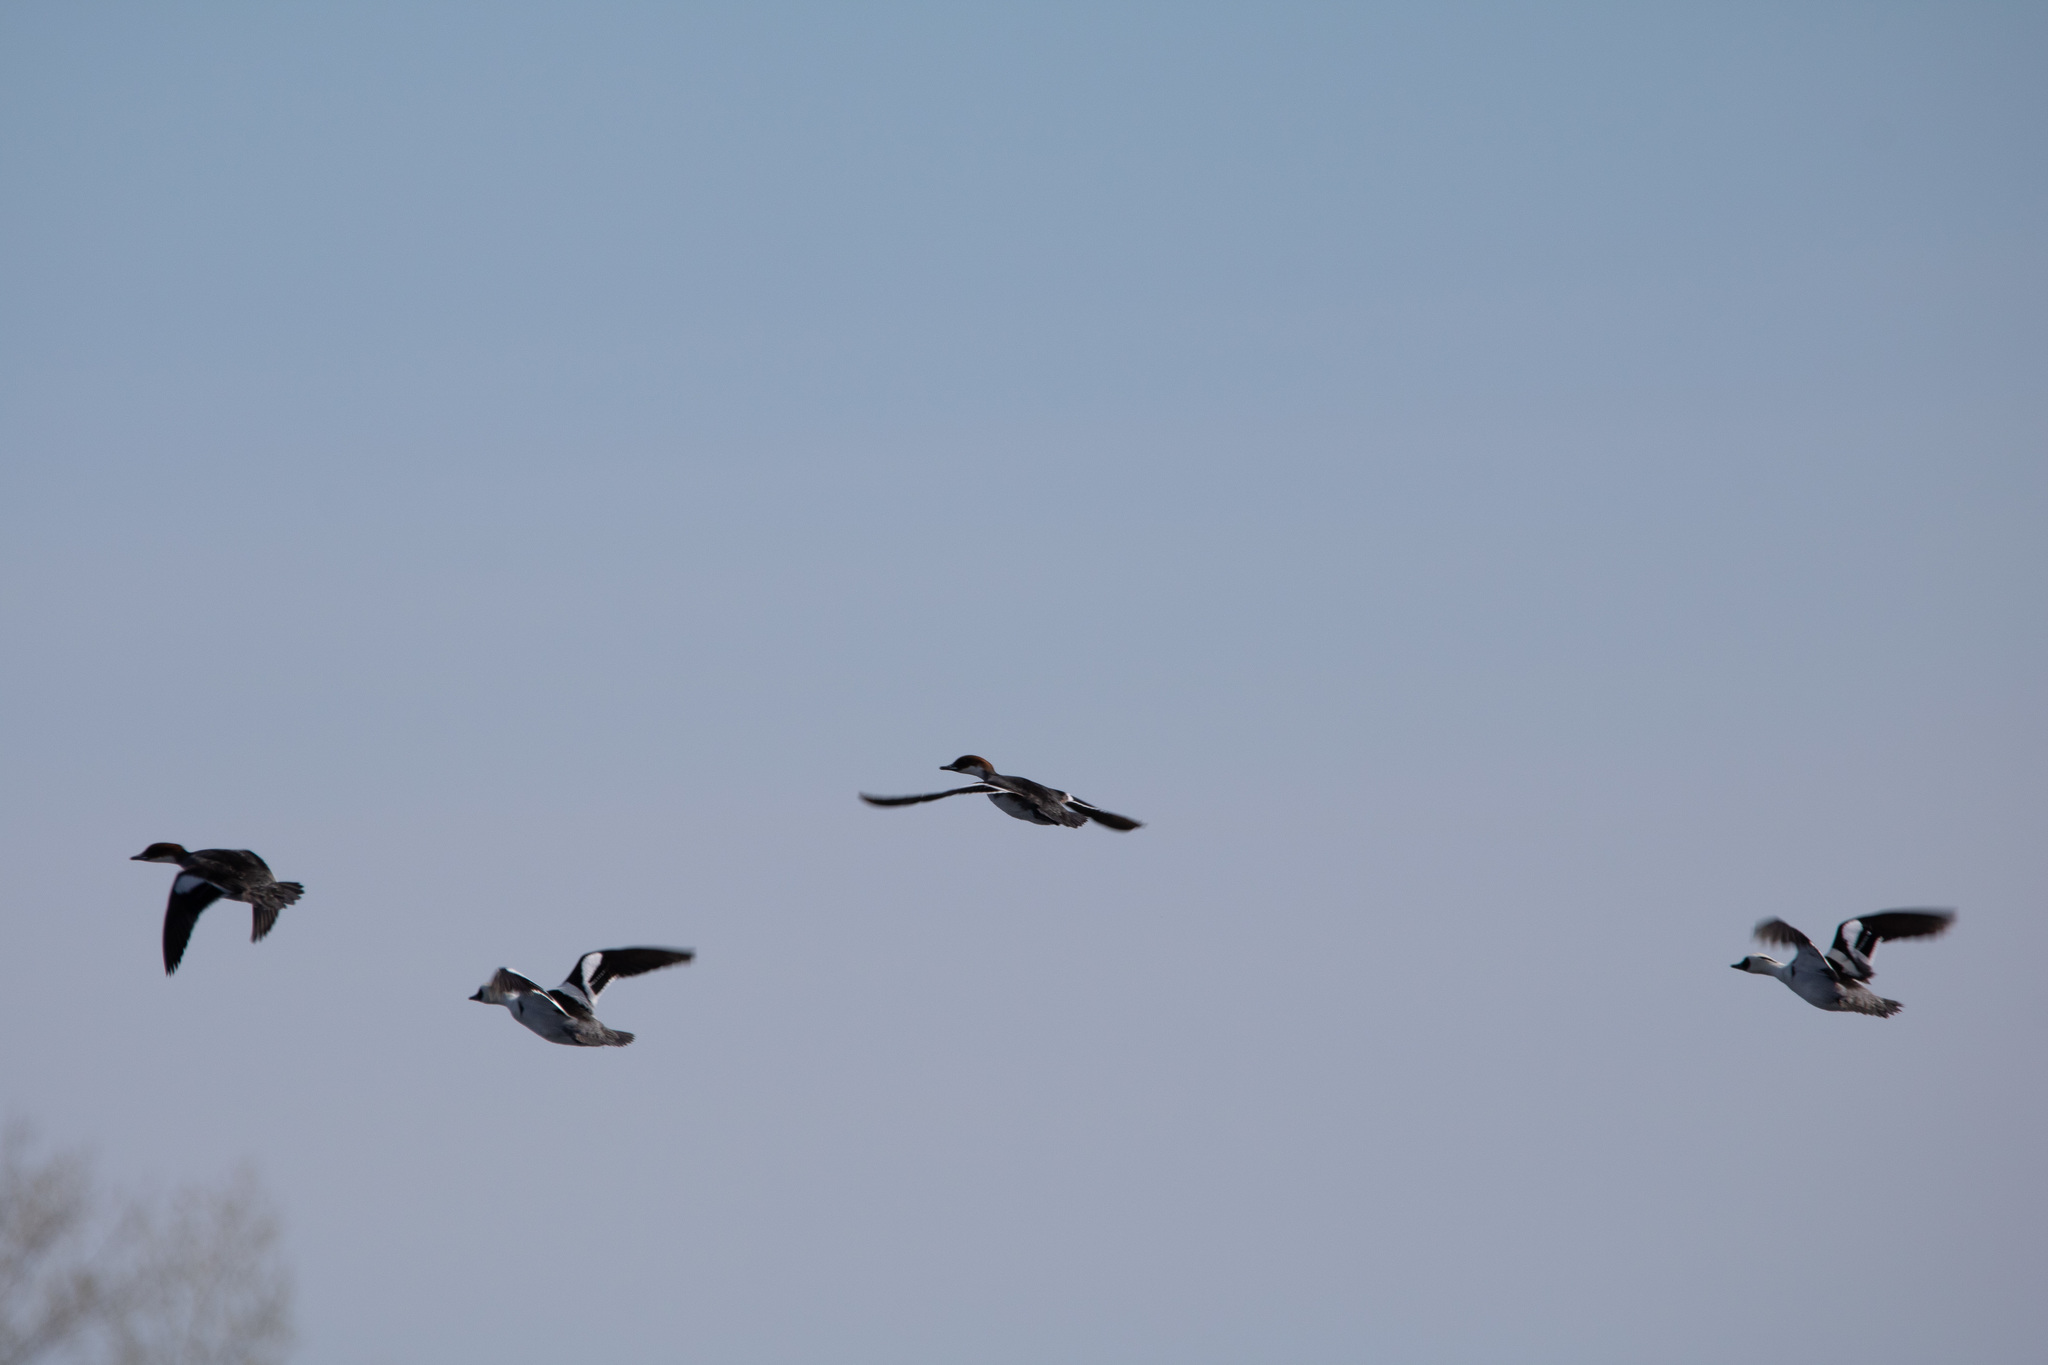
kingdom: Animalia
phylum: Chordata
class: Aves
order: Anseriformes
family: Anatidae
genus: Mergellus
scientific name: Mergellus albellus
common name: Smew
